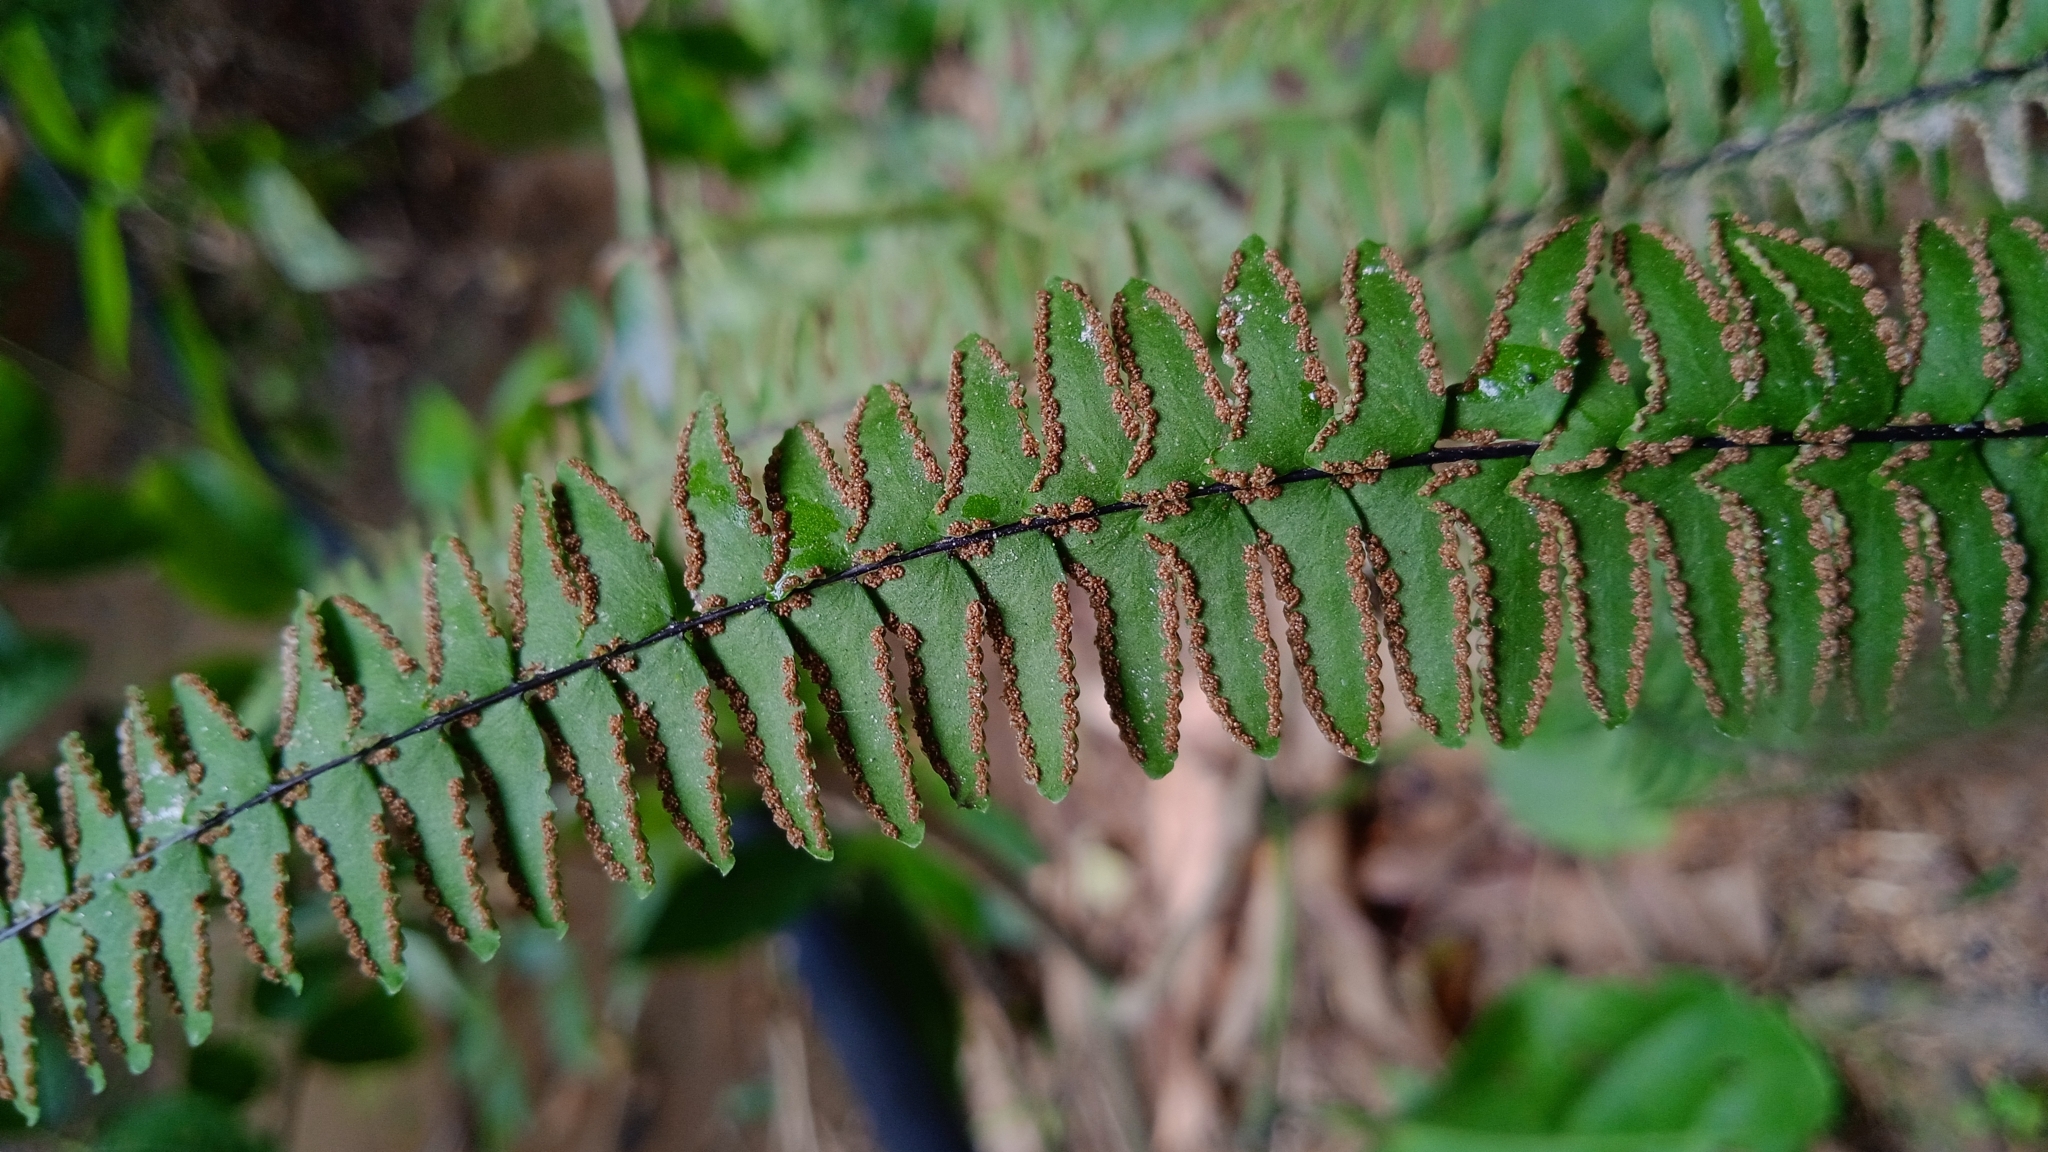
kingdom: Plantae
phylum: Tracheophyta
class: Polypodiopsida
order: Polypodiales
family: Pteridaceae
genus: Adiantopsis
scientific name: Adiantopsis radiata
